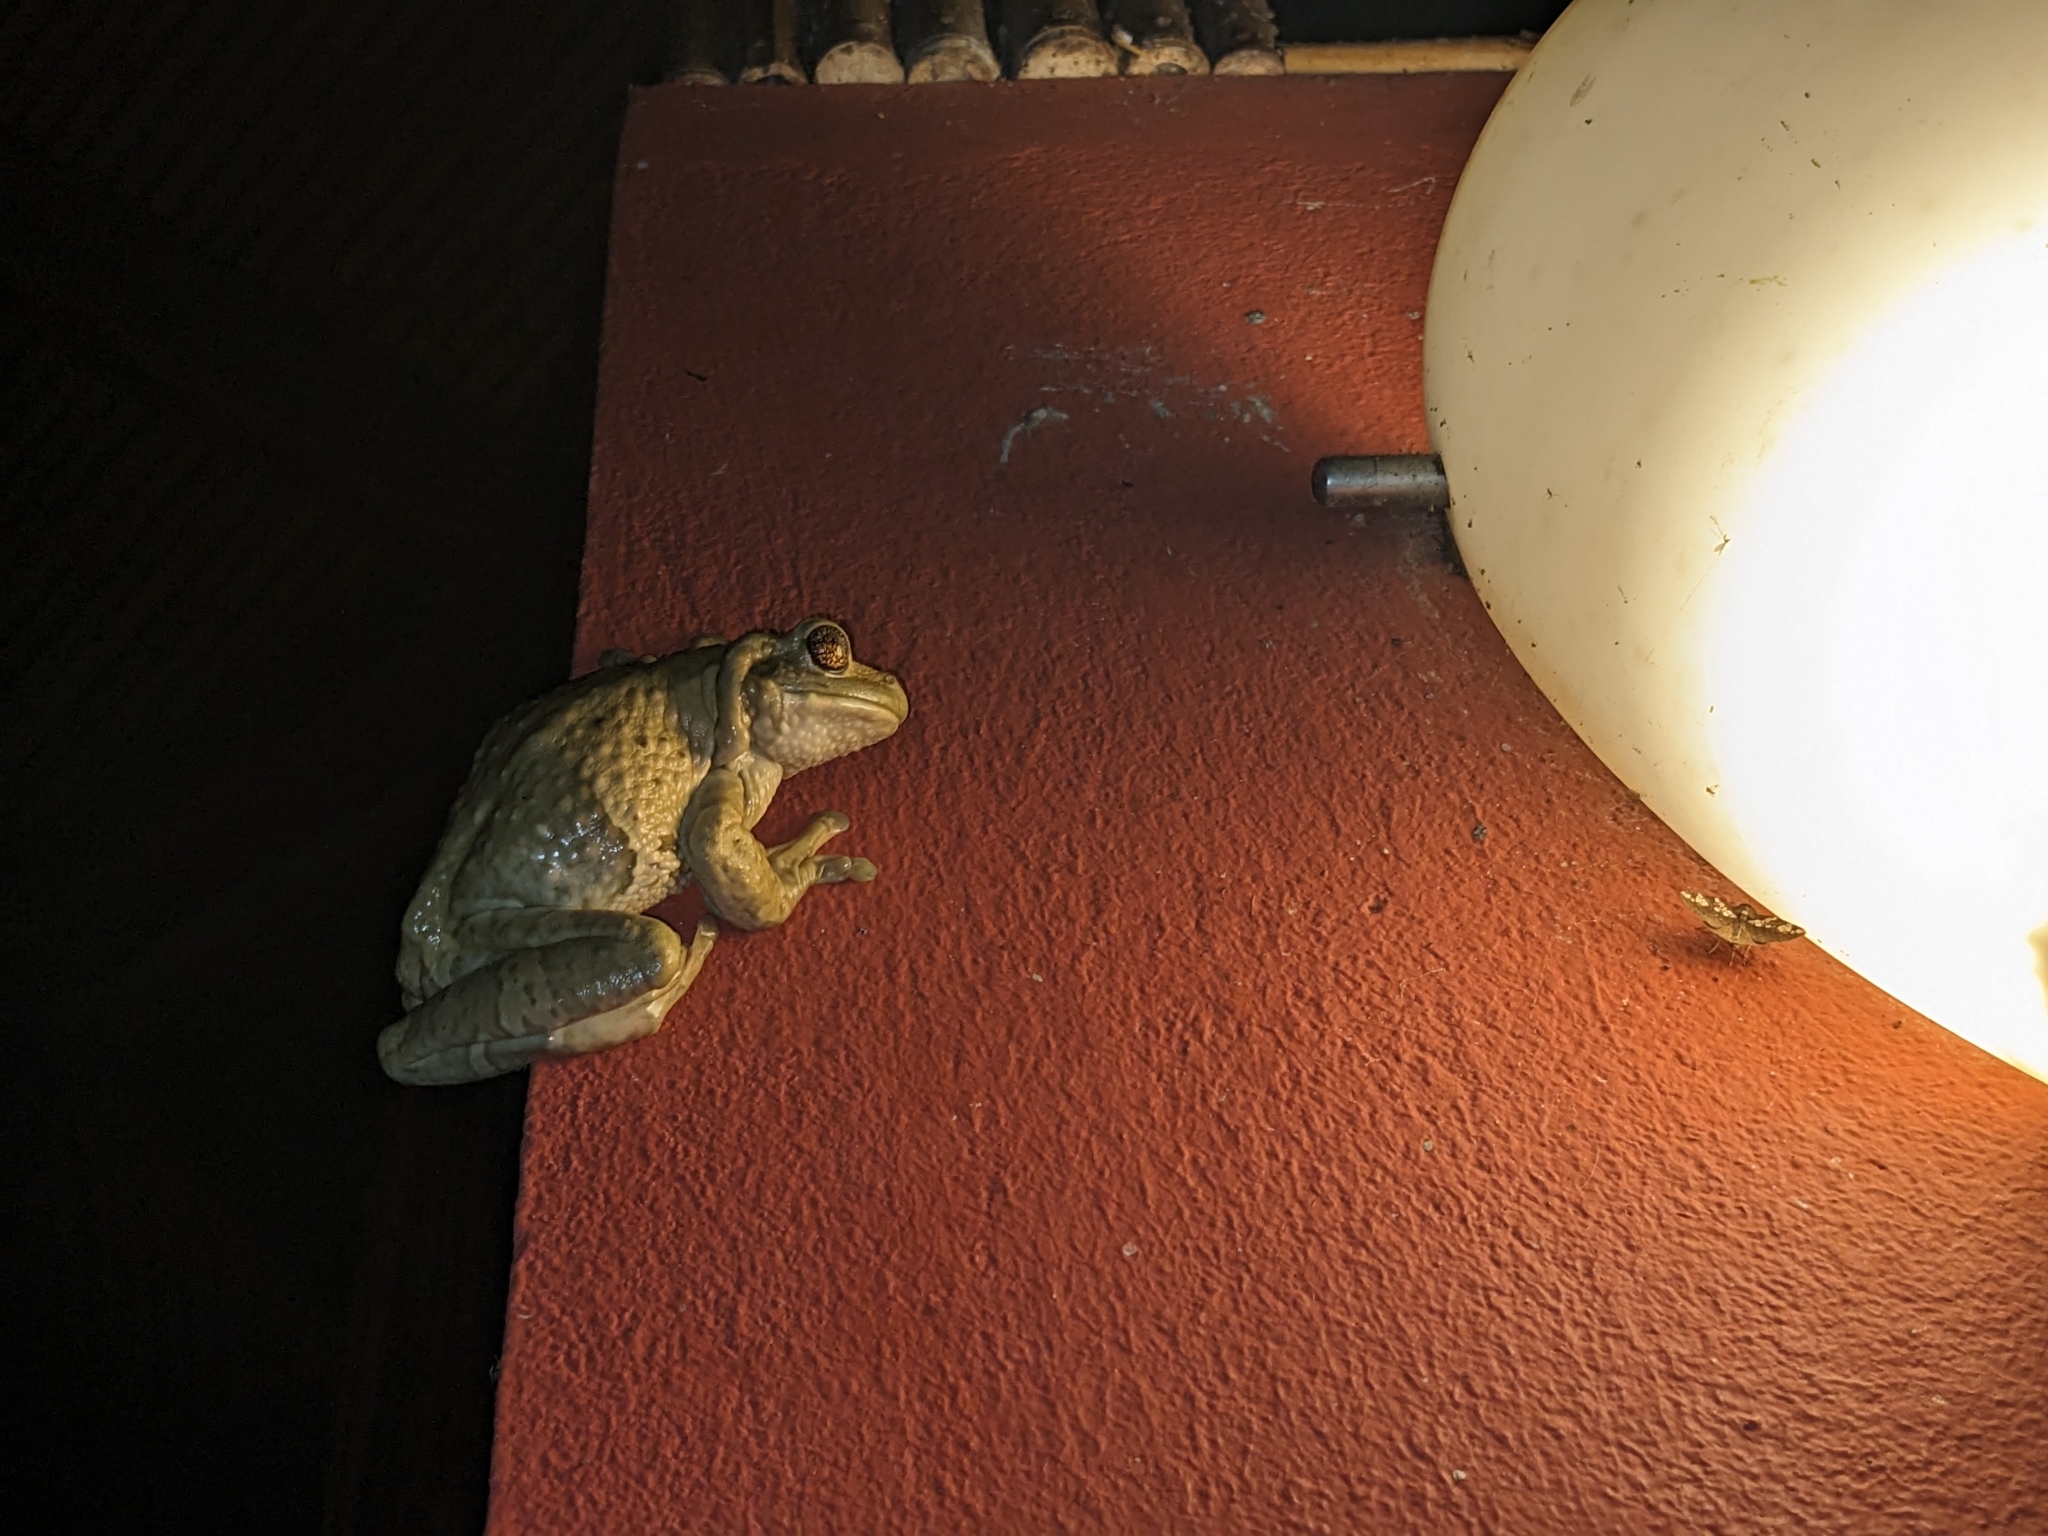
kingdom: Animalia
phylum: Chordata
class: Amphibia
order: Anura
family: Hylidae
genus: Trachycephalus
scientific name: Trachycephalus vermiculatus
